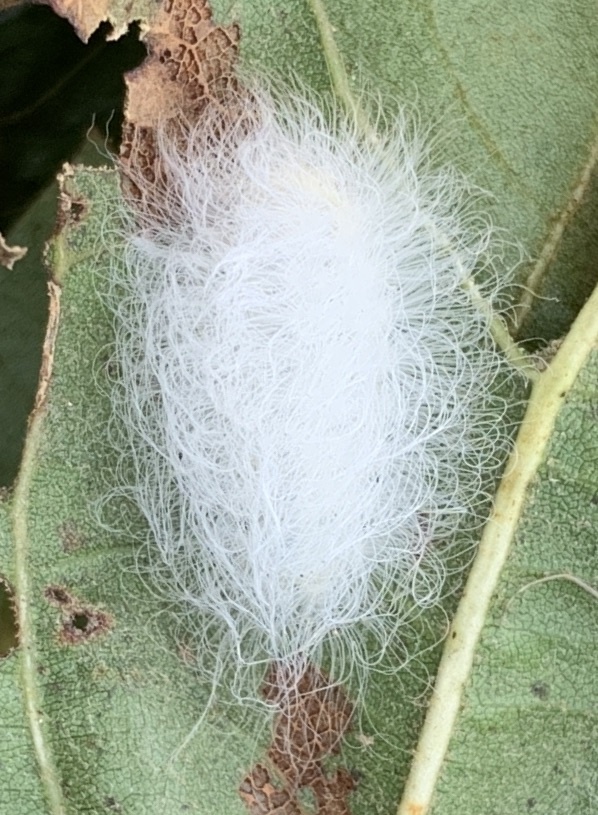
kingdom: Animalia
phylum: Arthropoda
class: Insecta
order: Lepidoptera
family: Megalopygidae
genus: Megalopyge
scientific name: Megalopyge crispata
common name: Black-waved flannel moth
